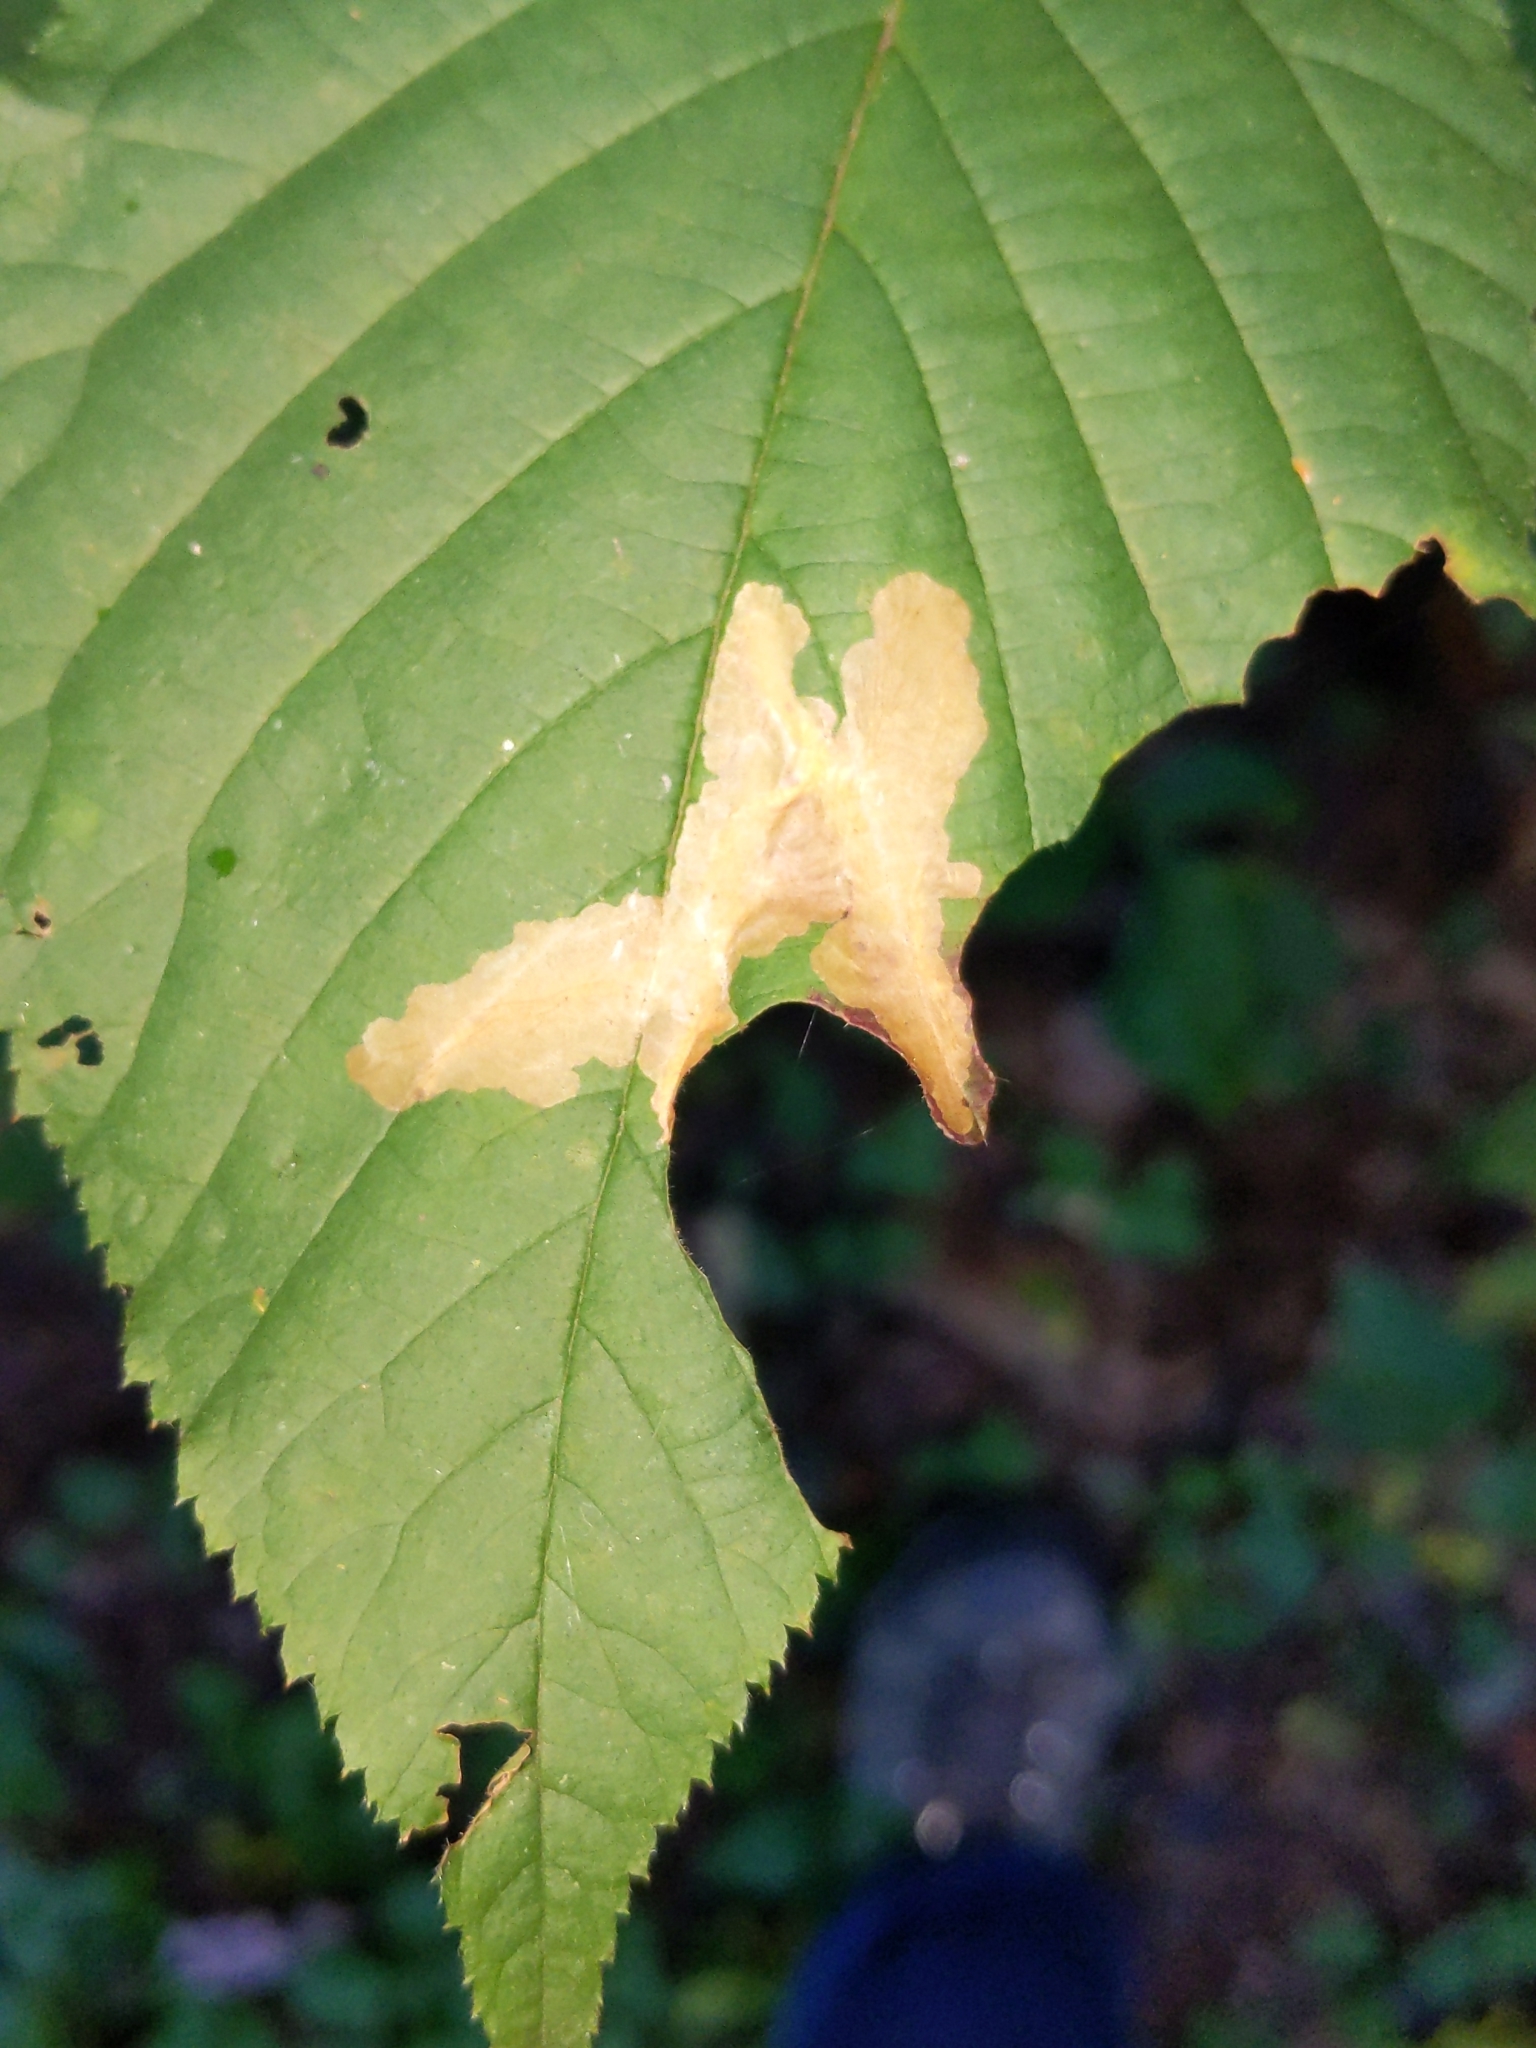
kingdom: Animalia
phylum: Arthropoda
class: Insecta
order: Lepidoptera
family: Tischeriidae
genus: Coptotriche
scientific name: Coptotriche aenea
